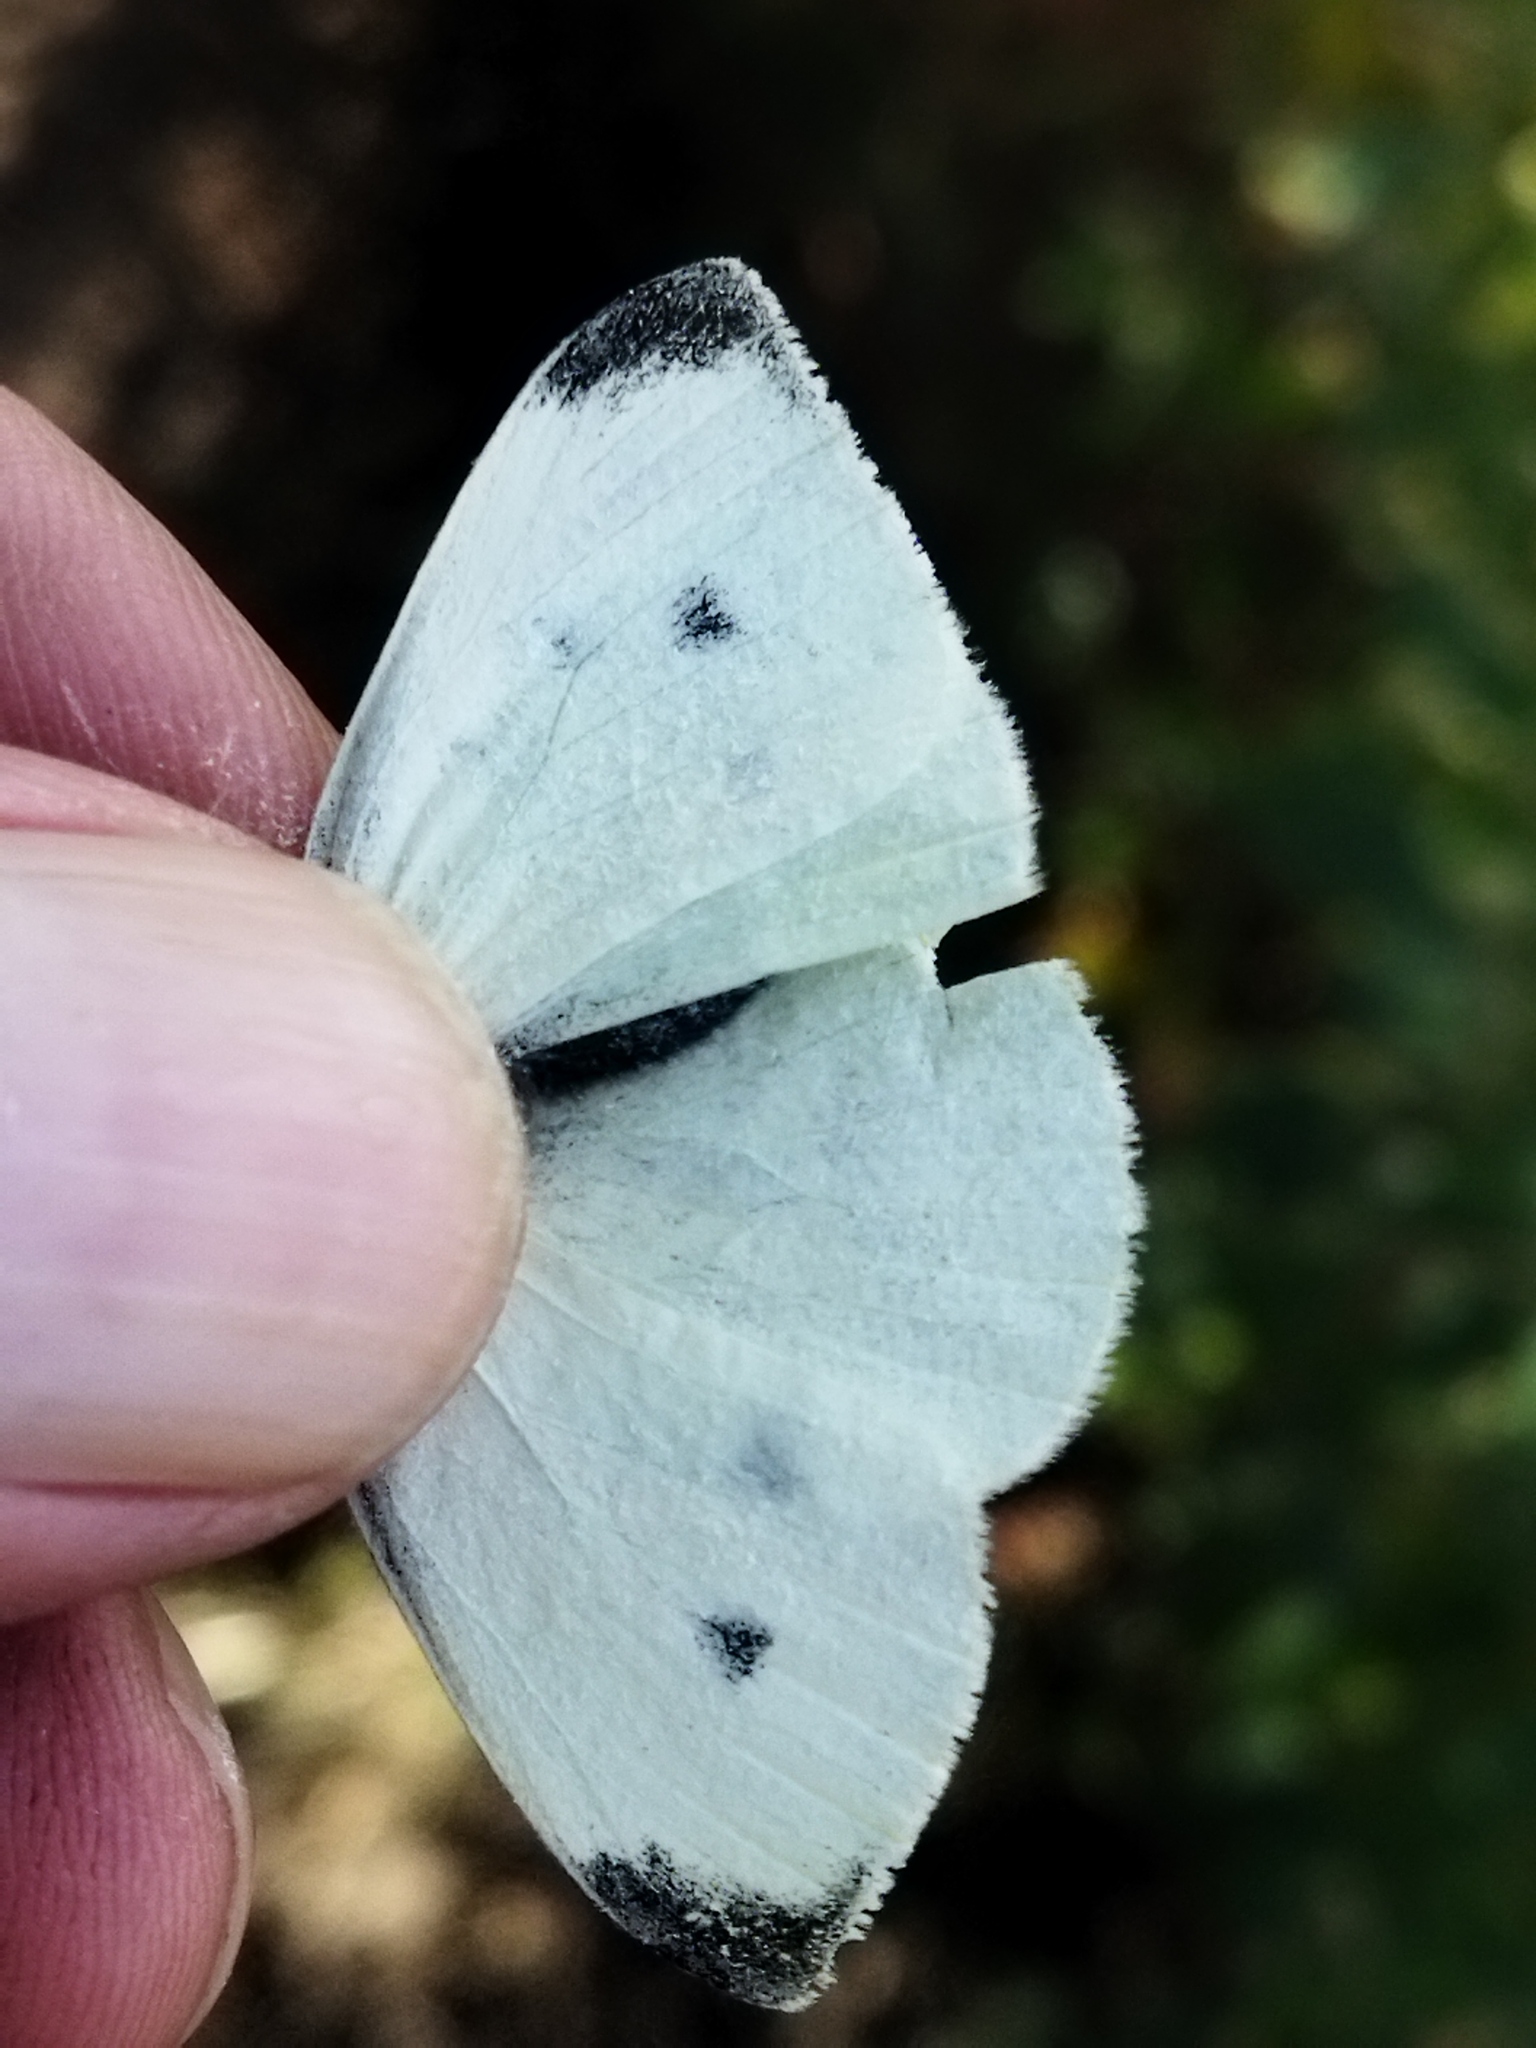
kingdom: Animalia
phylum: Arthropoda
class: Insecta
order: Lepidoptera
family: Pieridae
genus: Pieris
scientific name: Pieris rapae
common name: Small white
